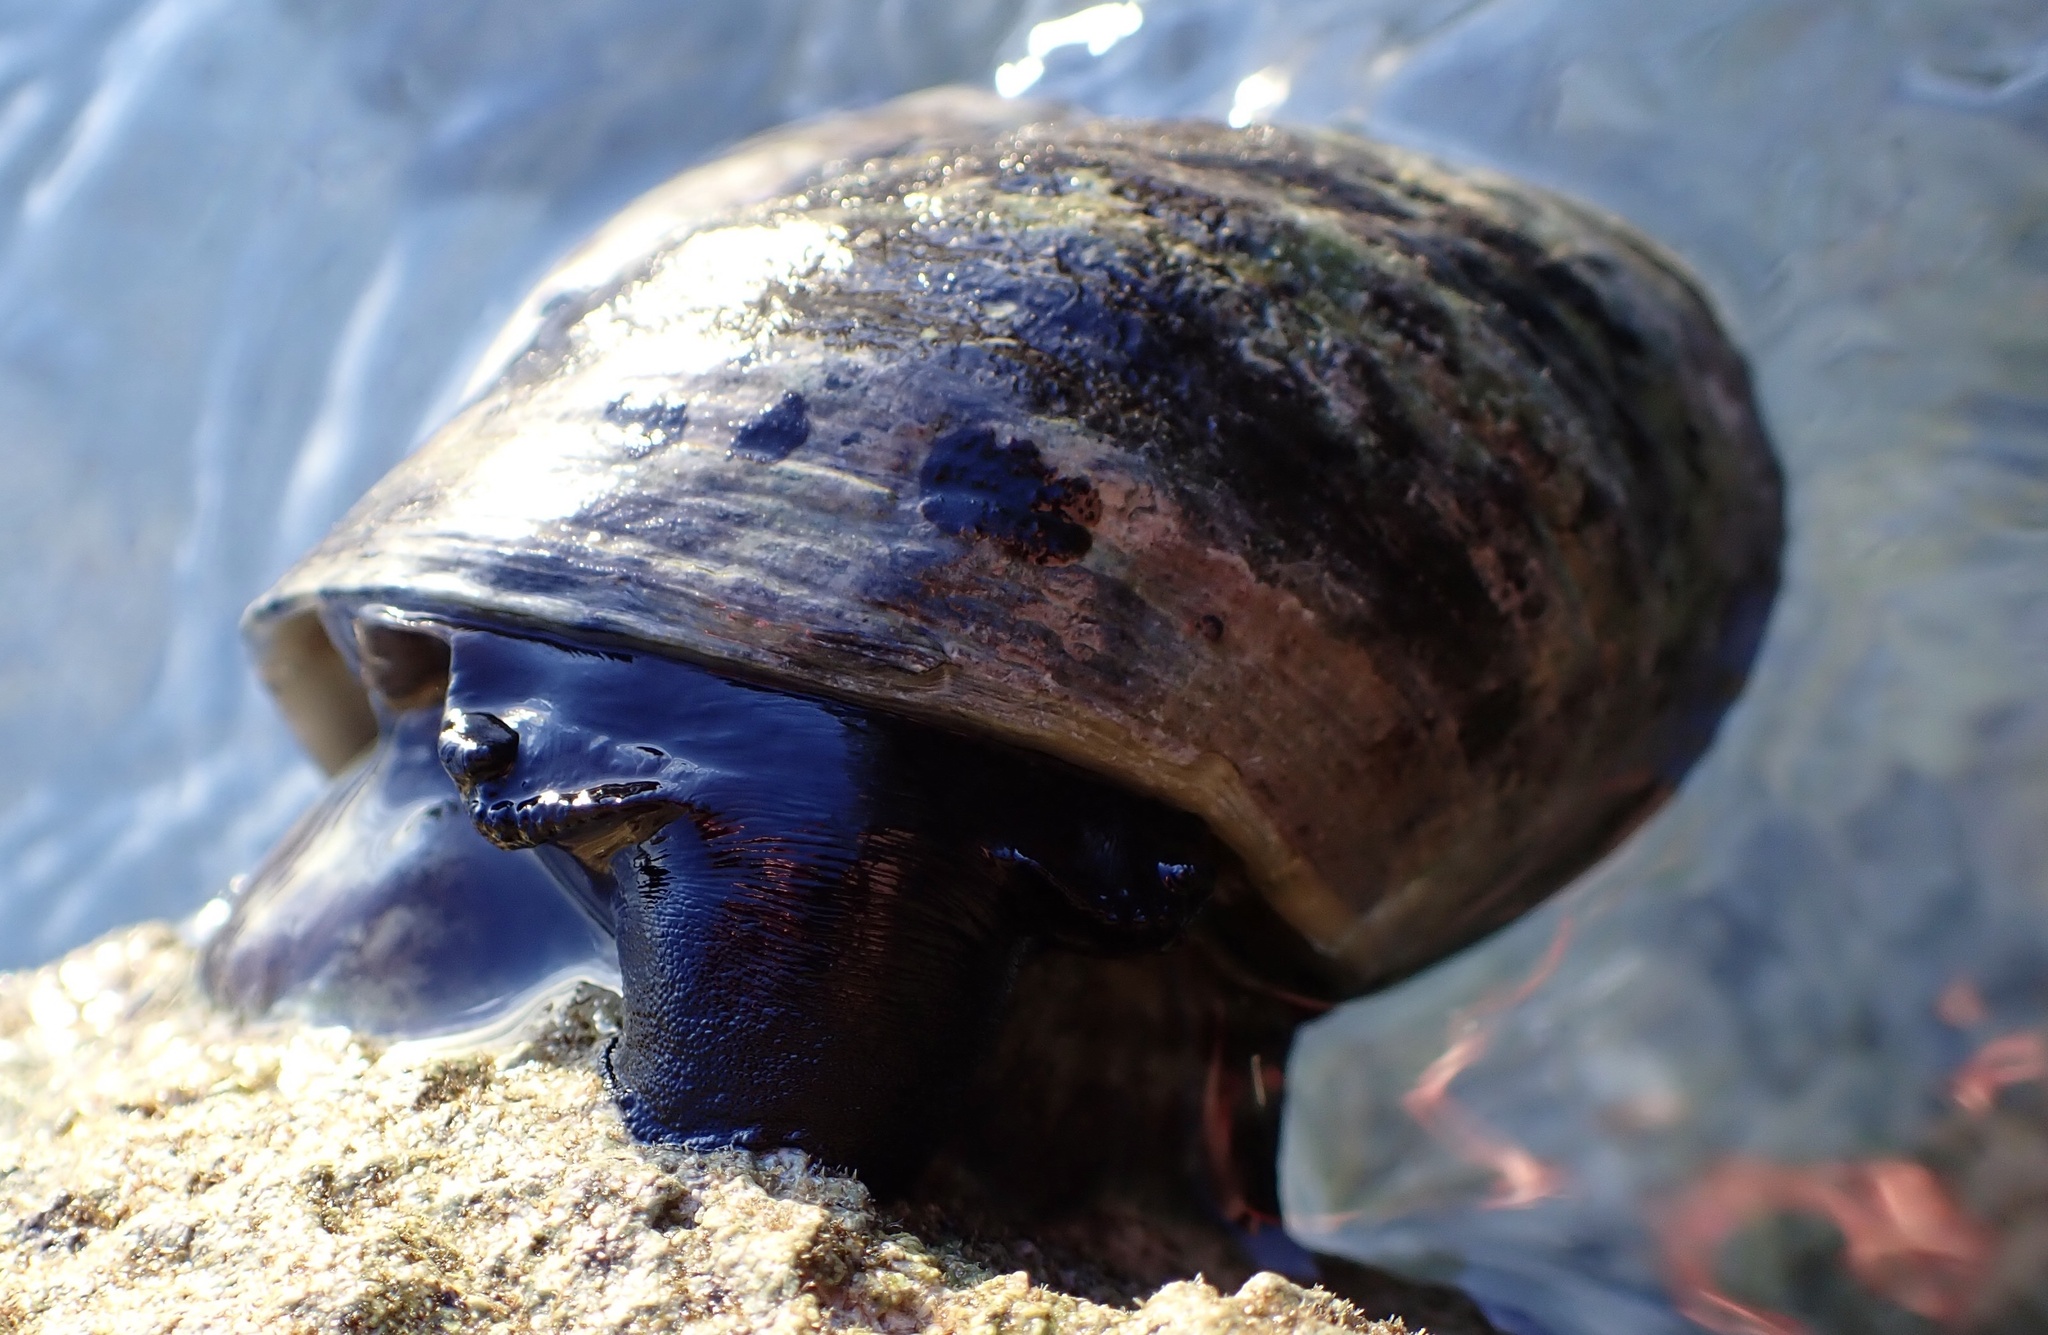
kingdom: Animalia
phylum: Mollusca
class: Gastropoda
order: Trochida
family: Tegulidae
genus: Cittarium
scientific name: Cittarium pica
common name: West indian topshell
